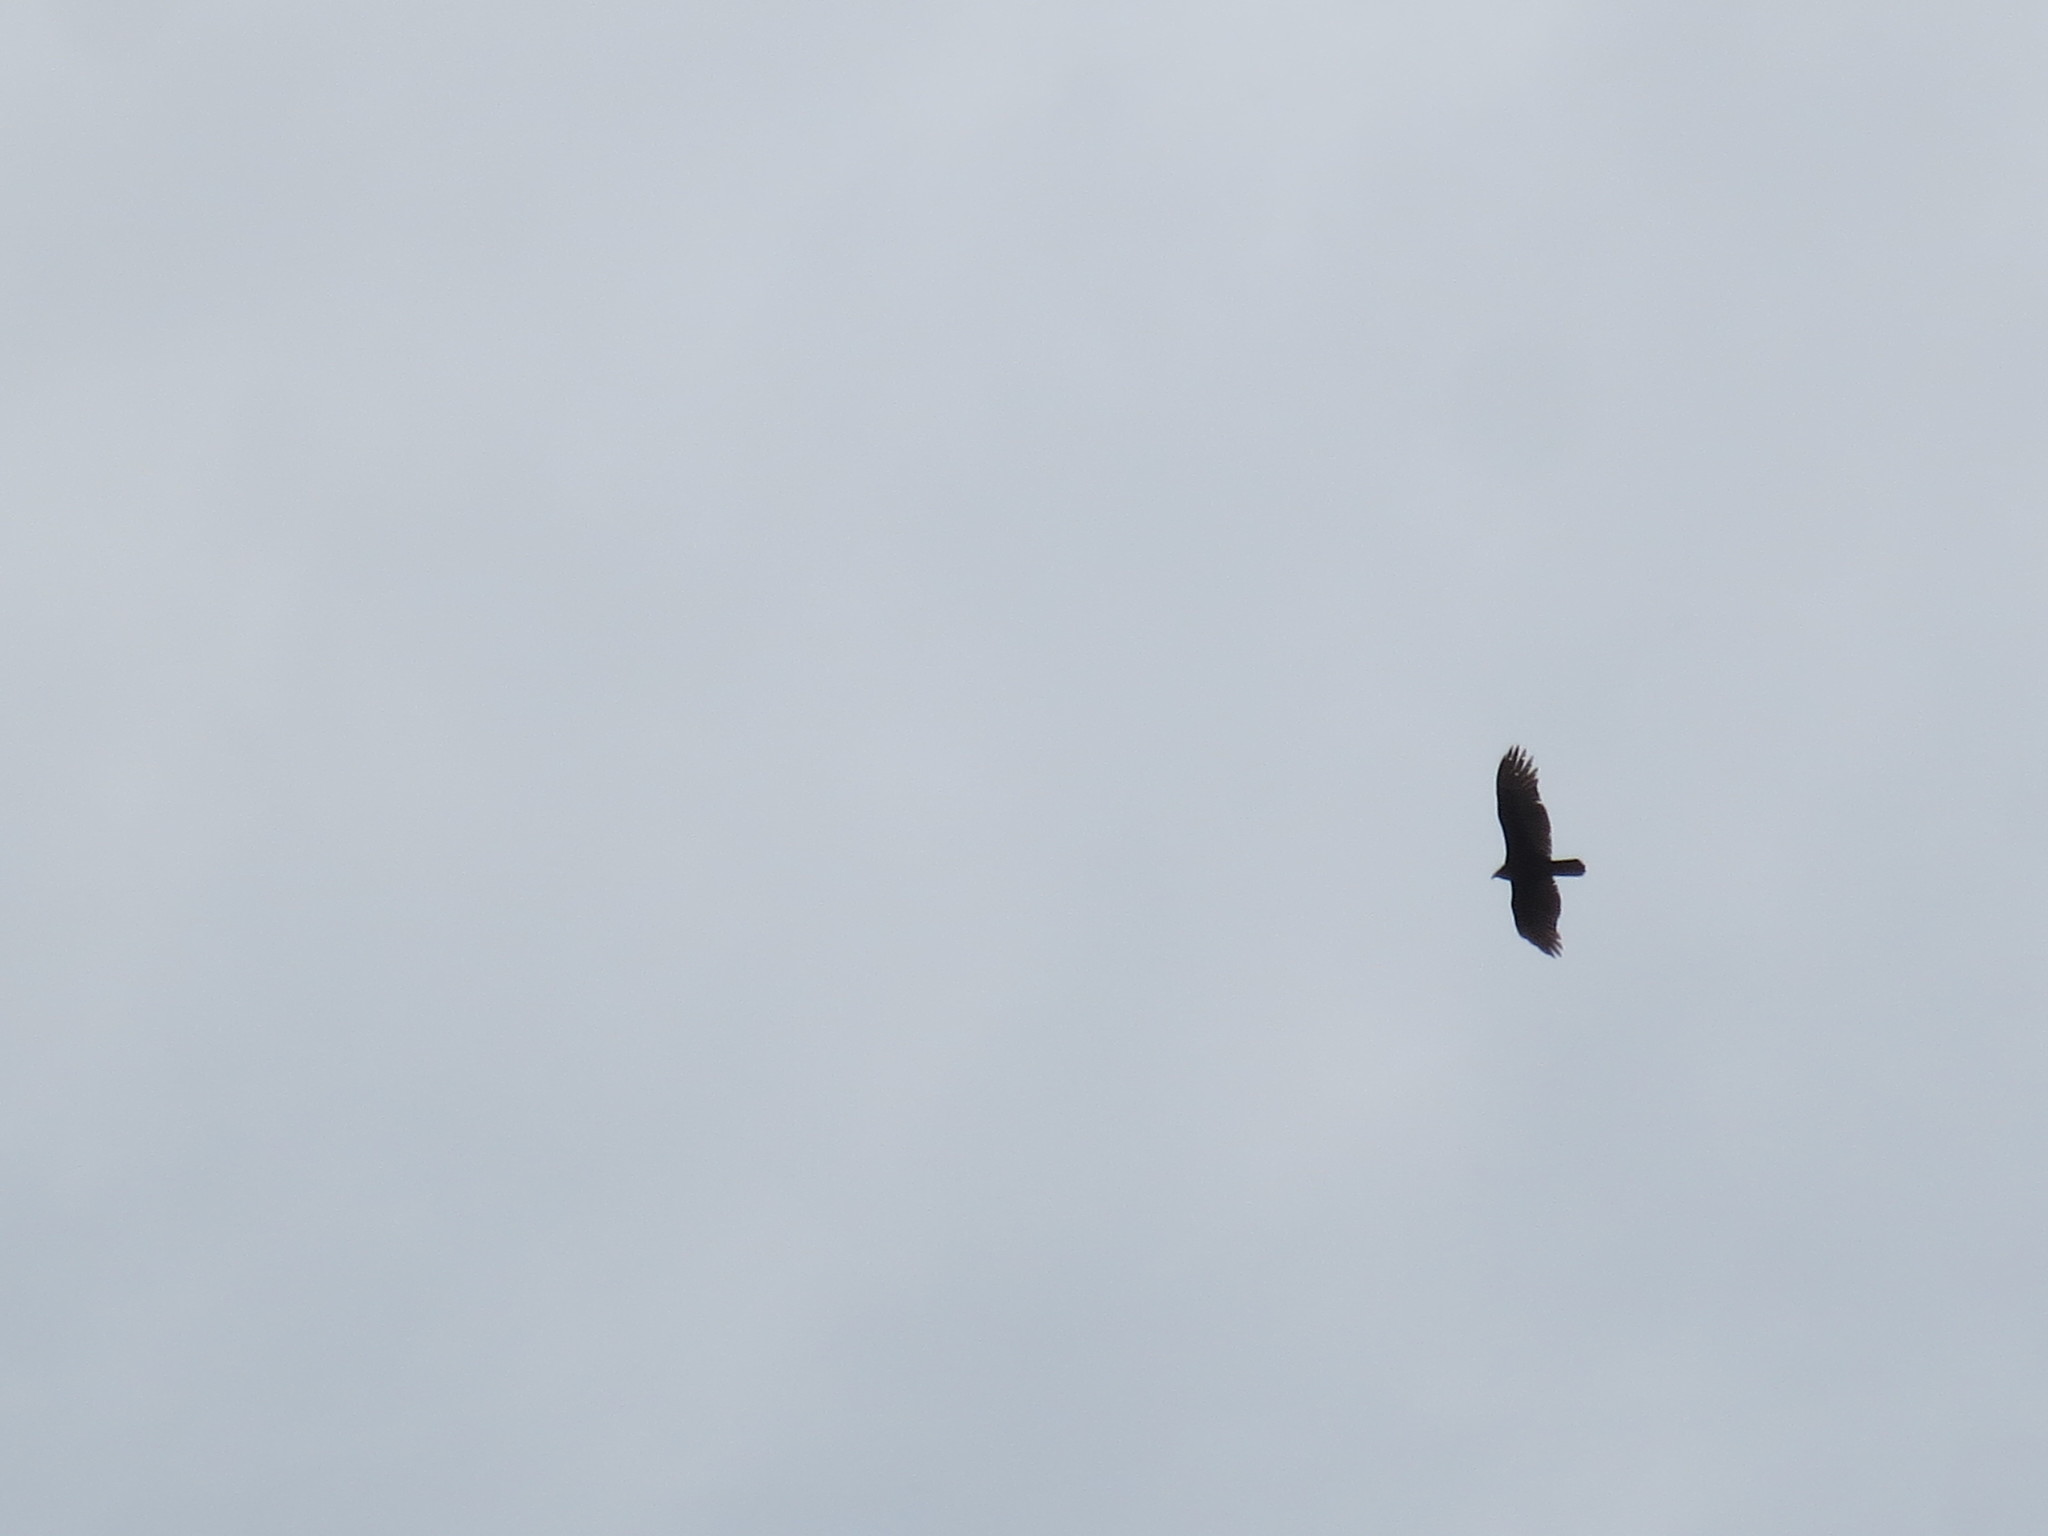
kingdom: Animalia
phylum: Chordata
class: Aves
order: Accipitriformes
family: Cathartidae
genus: Cathartes
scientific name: Cathartes aura
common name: Turkey vulture
